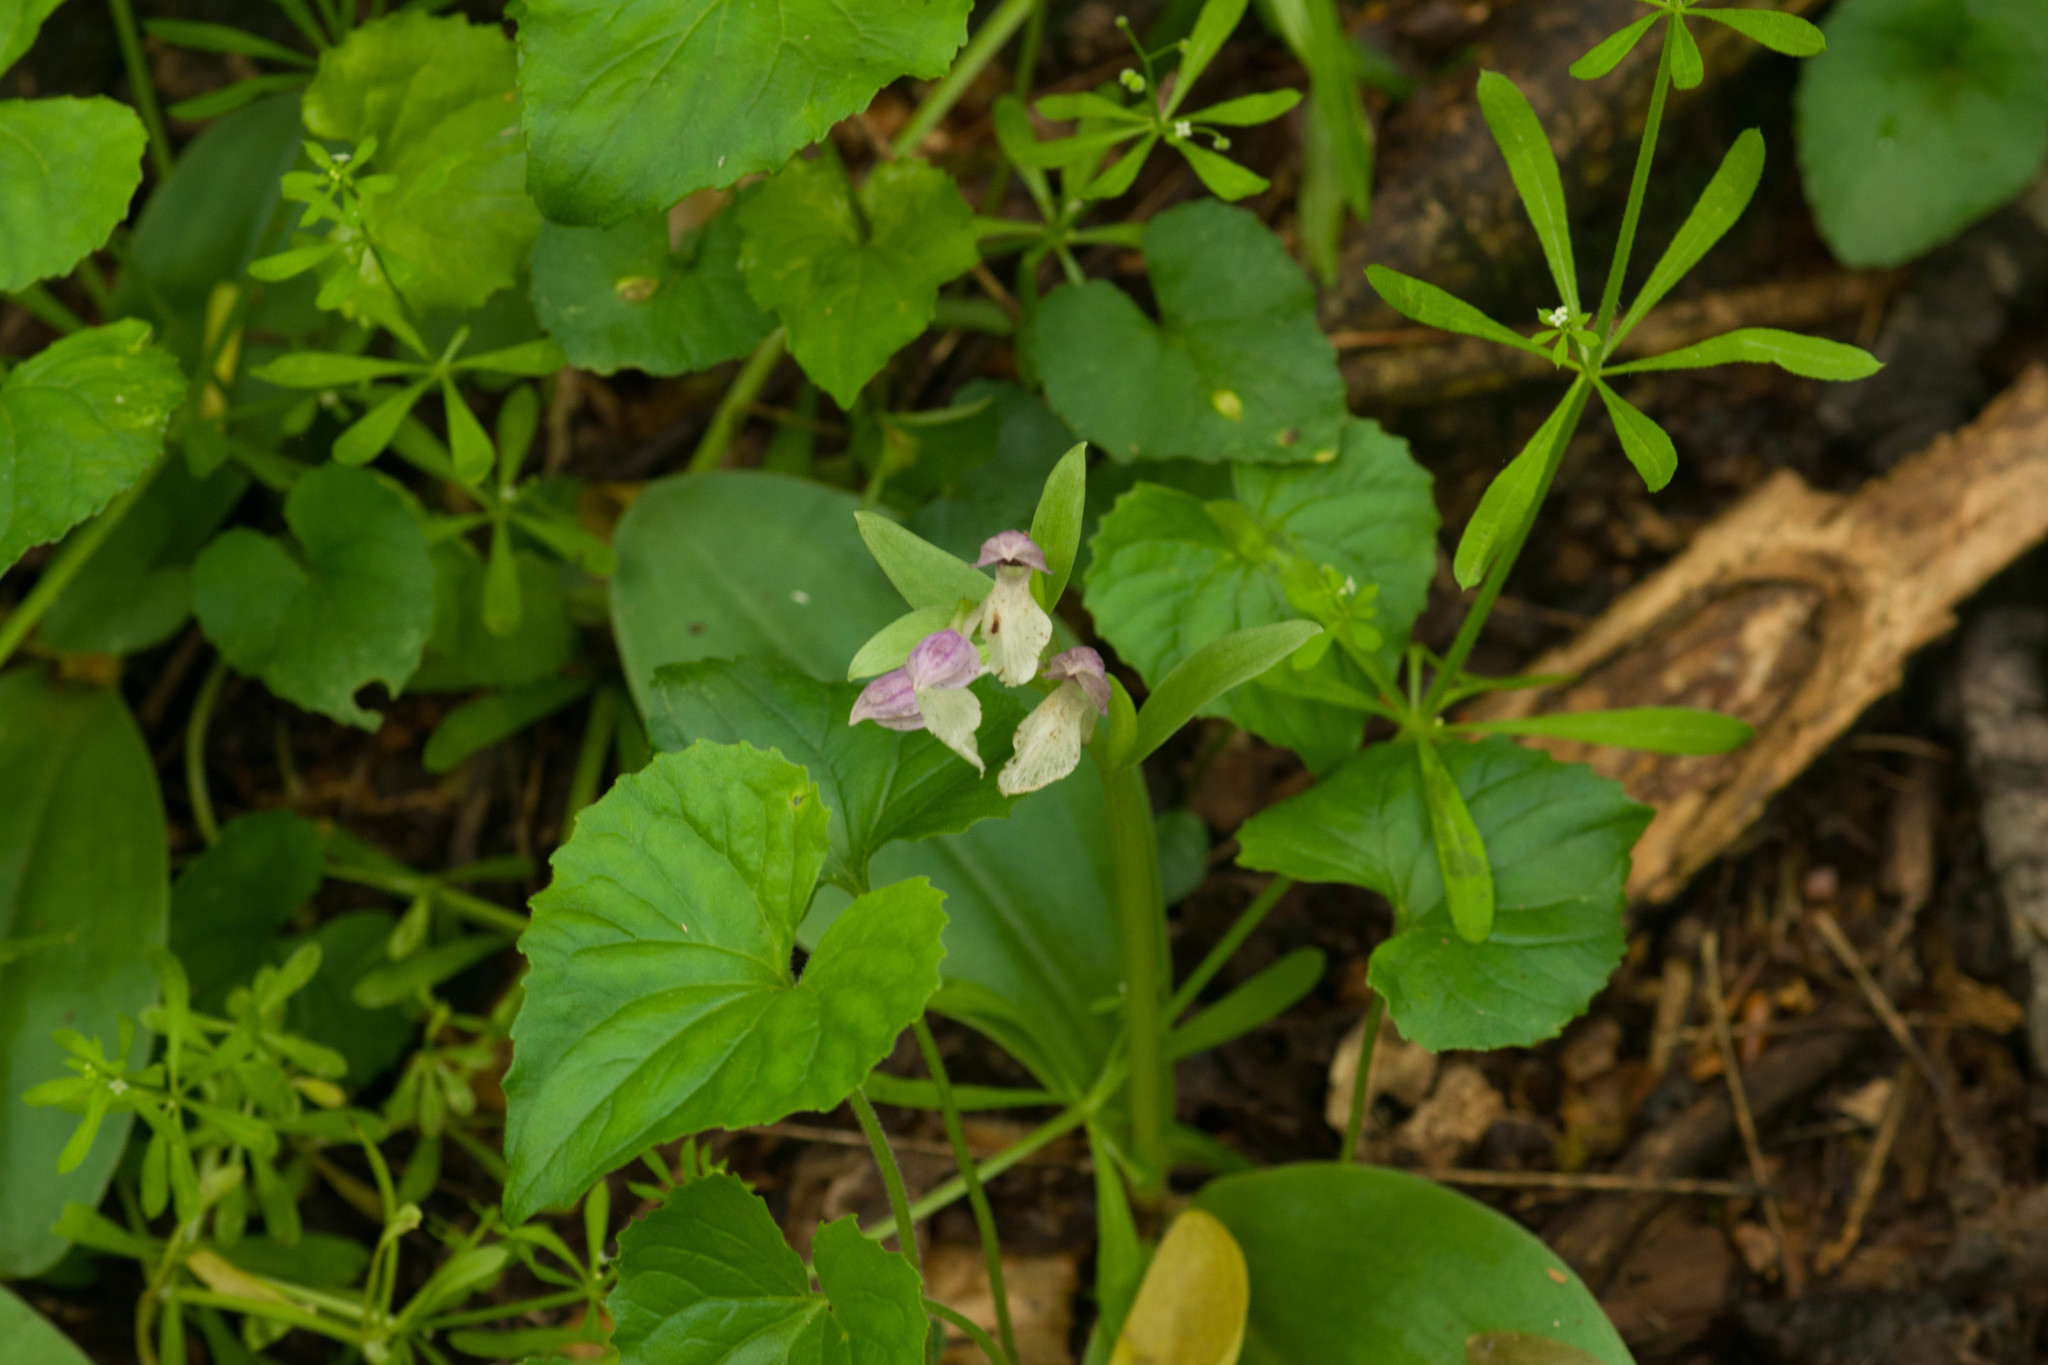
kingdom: Plantae
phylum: Tracheophyta
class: Liliopsida
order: Asparagales
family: Orchidaceae
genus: Galearis
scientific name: Galearis spectabilis
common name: Purple-hooded orchis
